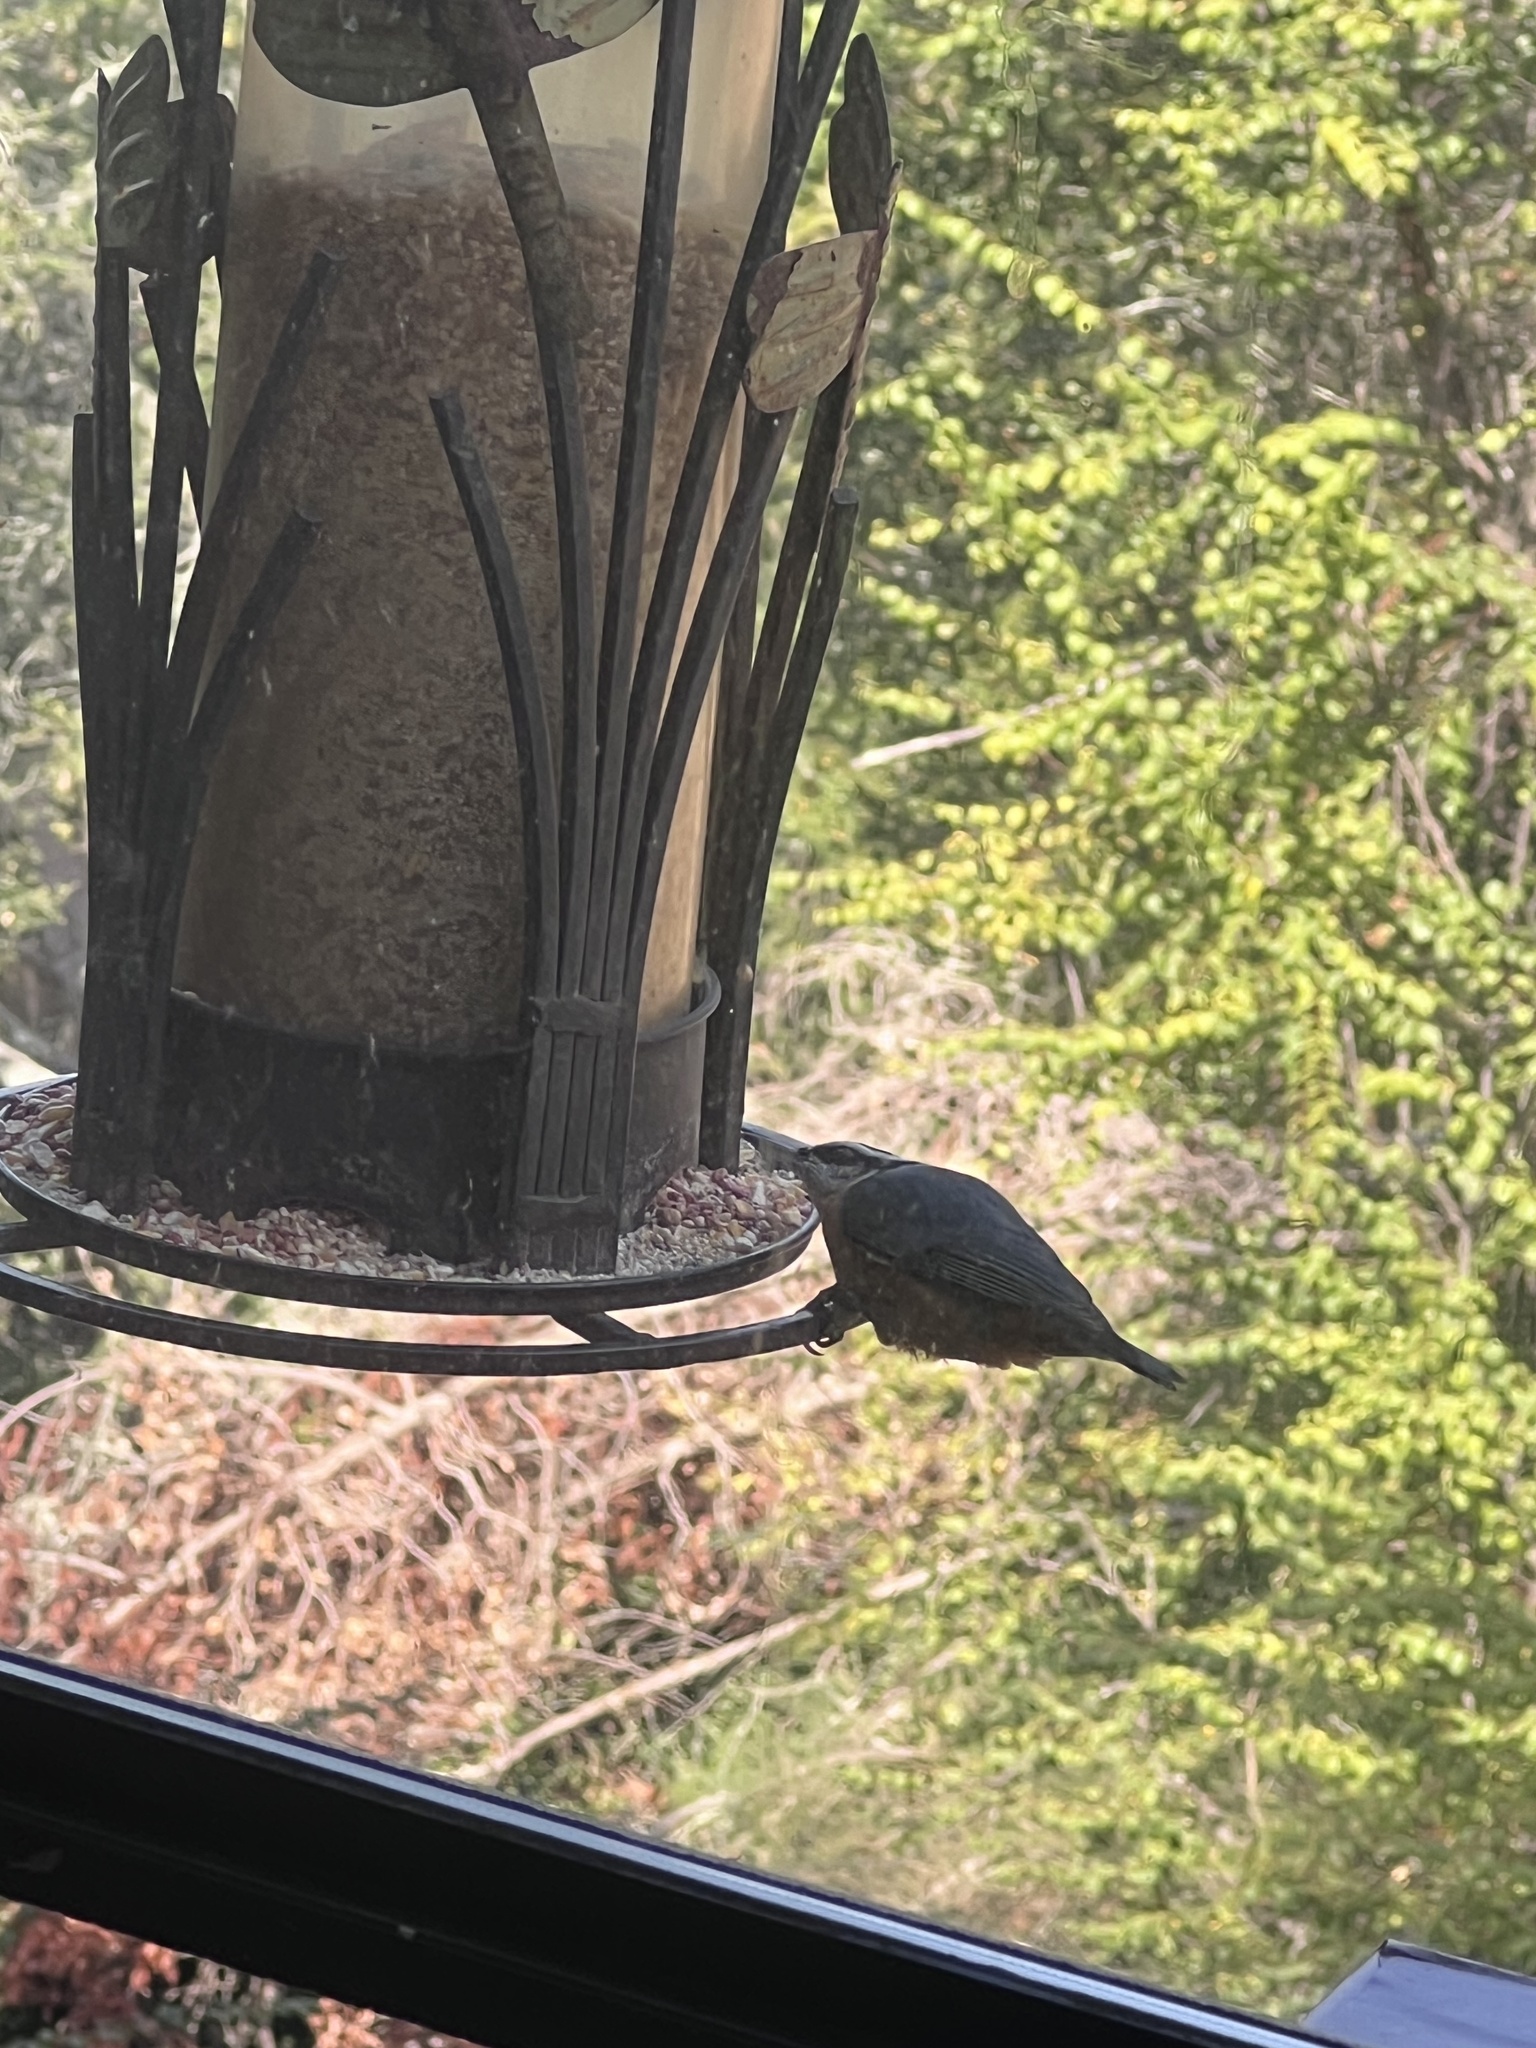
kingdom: Animalia
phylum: Chordata
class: Aves
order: Passeriformes
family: Sittidae
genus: Sitta
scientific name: Sitta canadensis
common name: Red-breasted nuthatch
